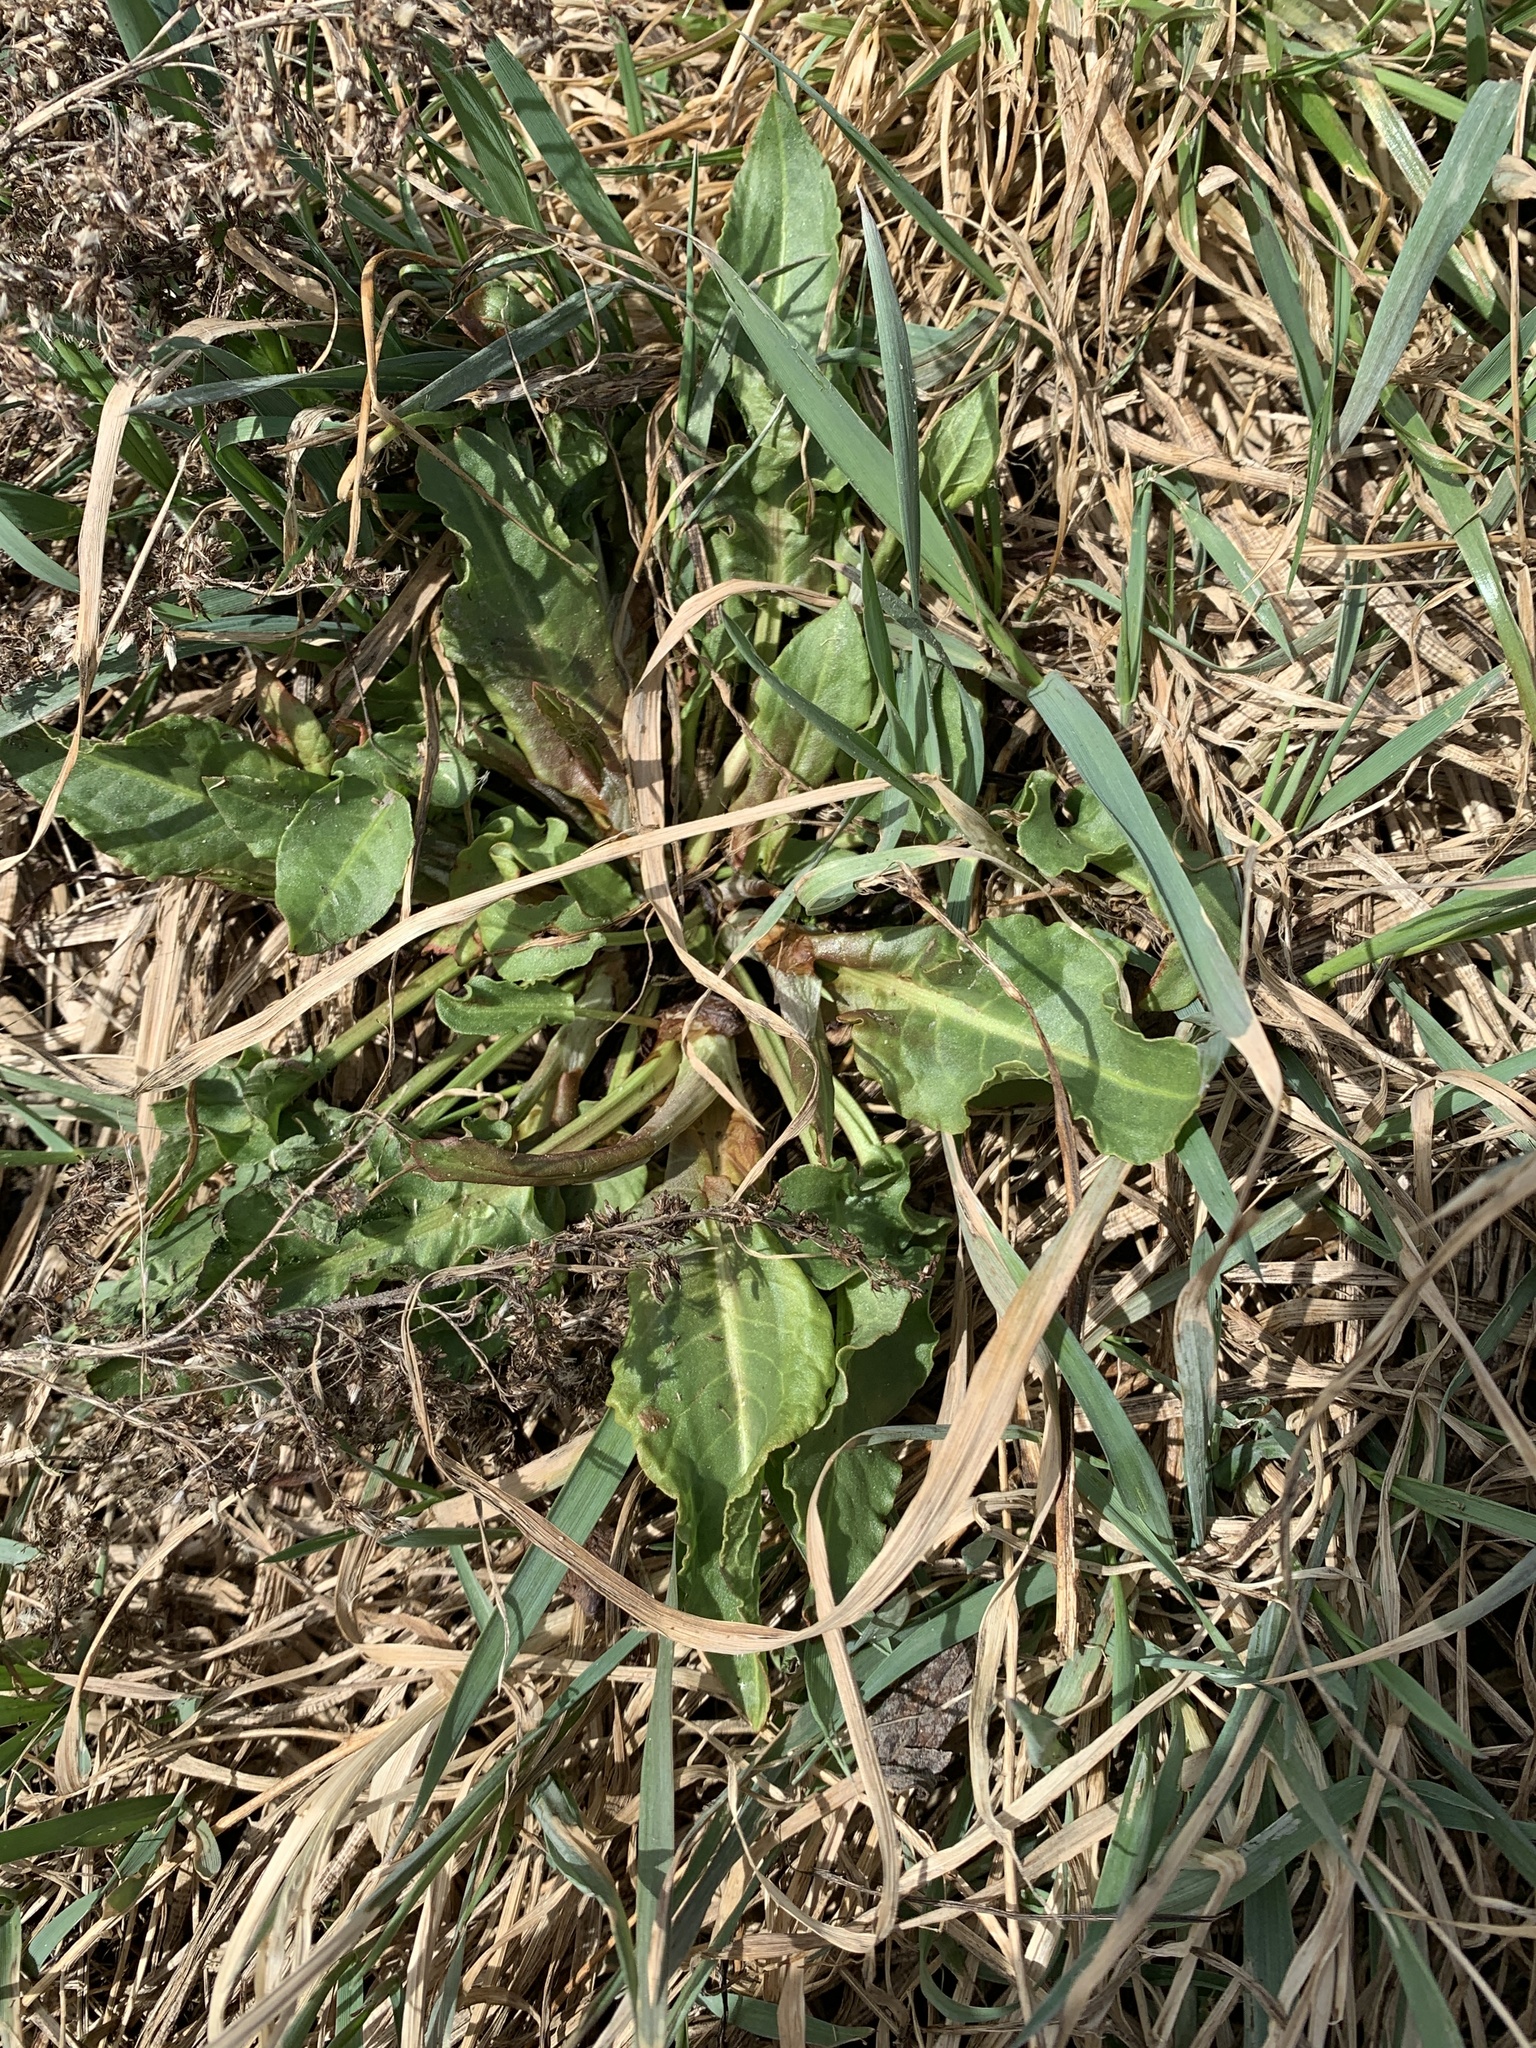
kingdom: Plantae
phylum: Tracheophyta
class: Magnoliopsida
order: Caryophyllales
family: Polygonaceae
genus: Rumex
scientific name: Rumex crispus
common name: Curled dock
